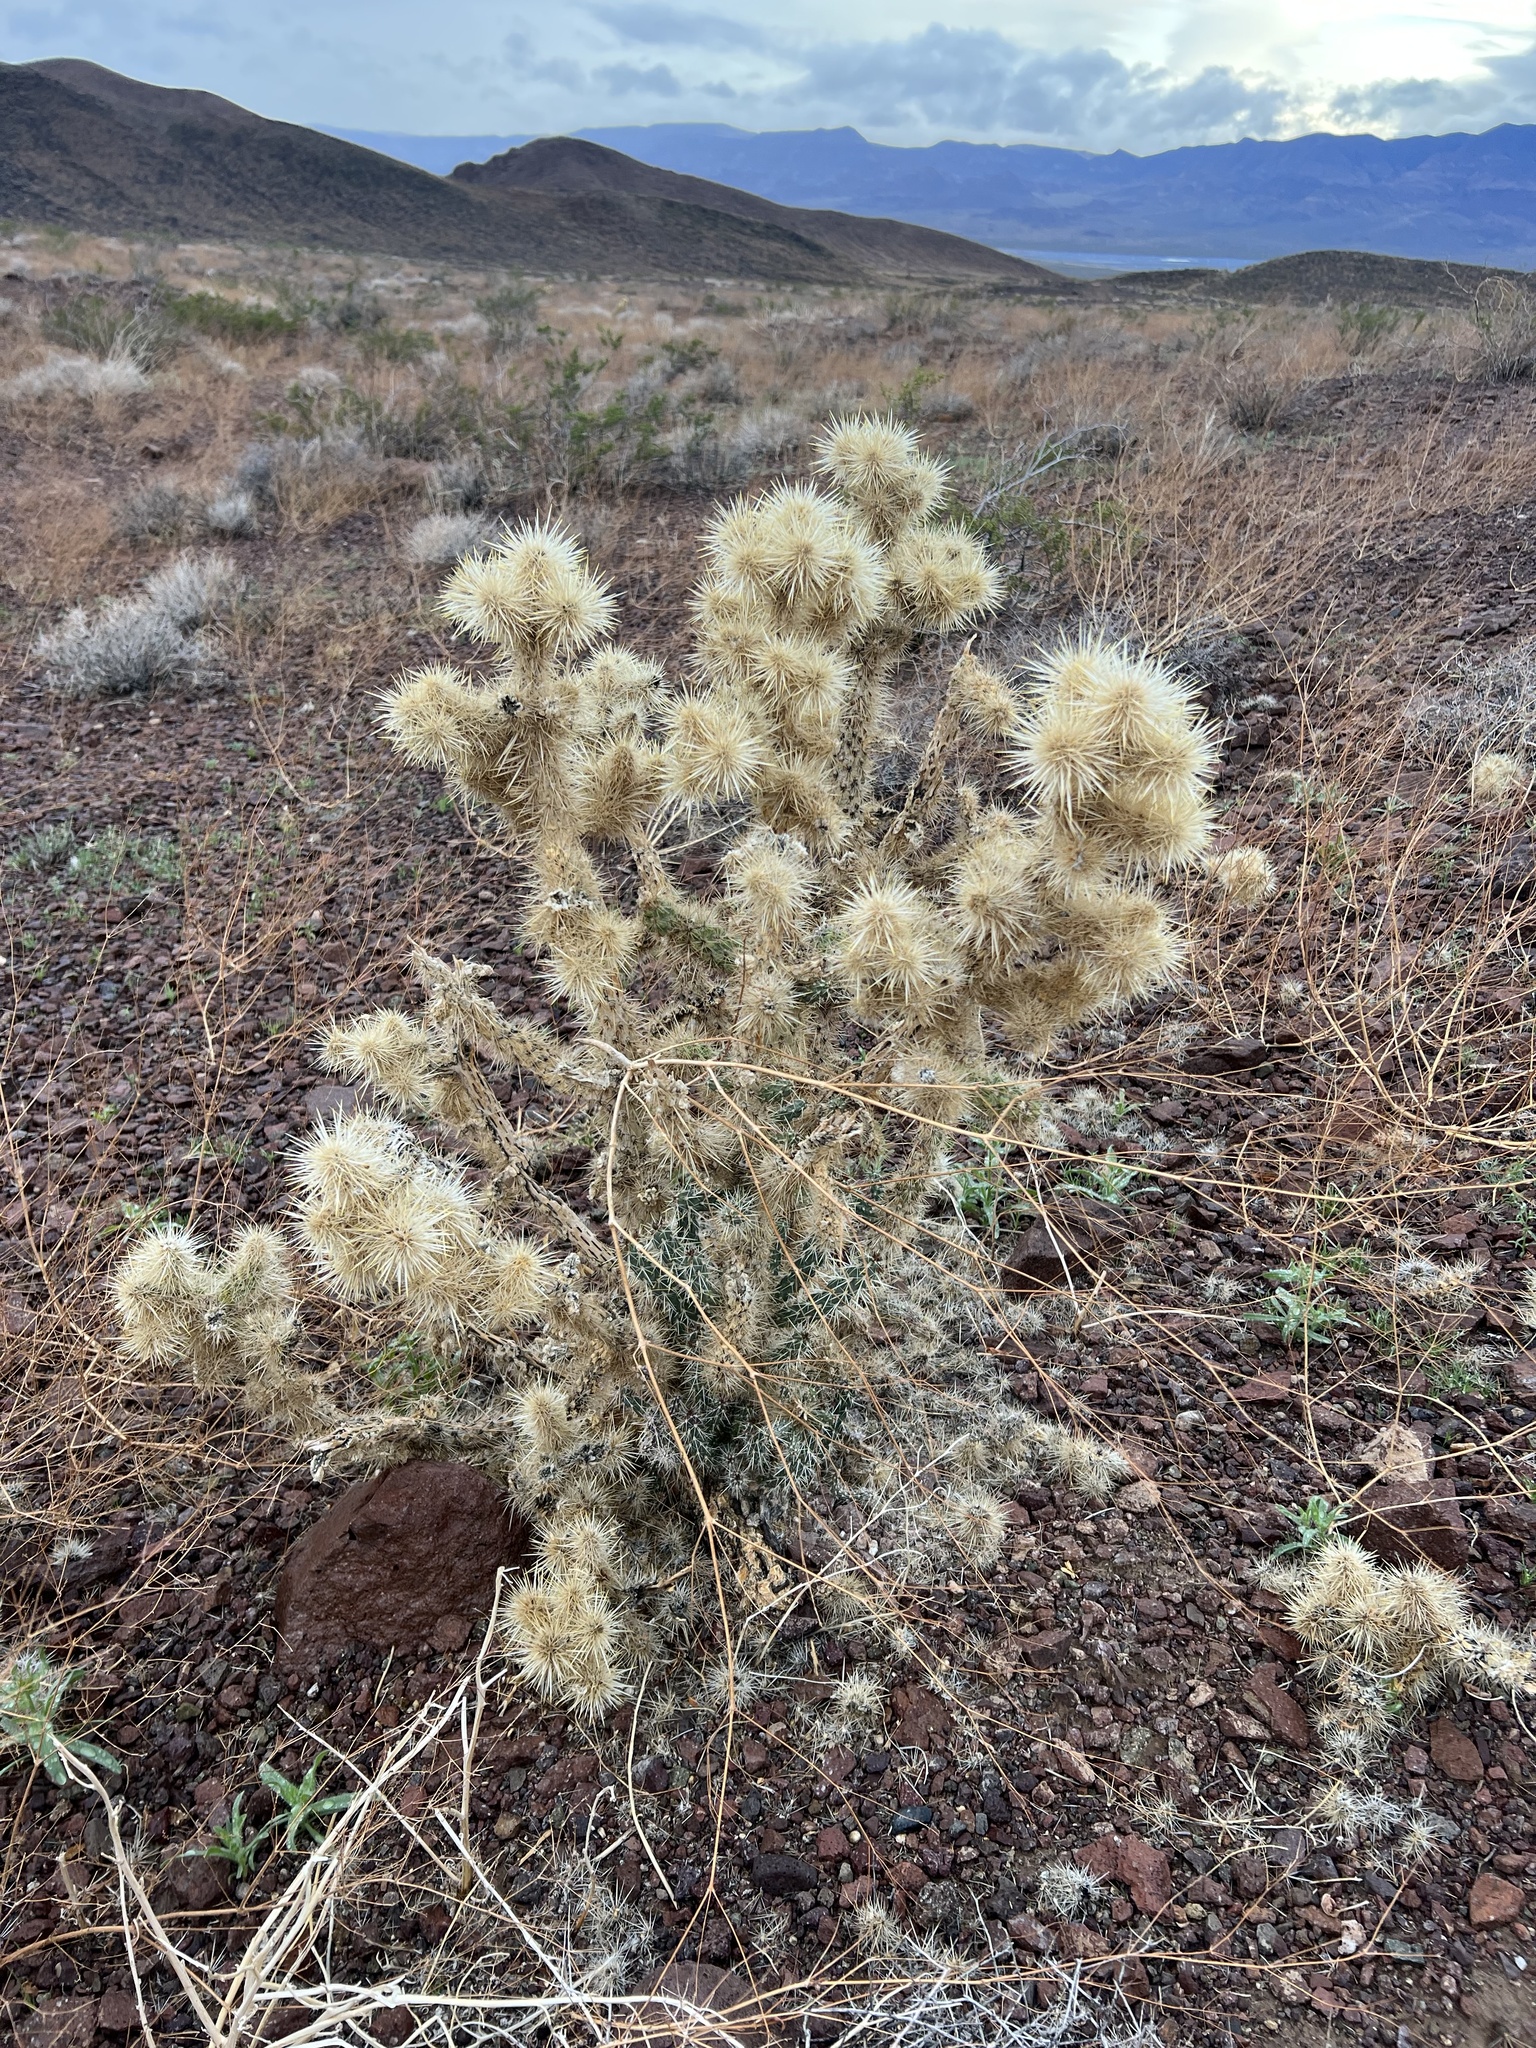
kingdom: Plantae
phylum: Tracheophyta
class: Magnoliopsida
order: Caryophyllales
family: Cactaceae
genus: Cylindropuntia
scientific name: Cylindropuntia echinocarpa
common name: Ground cholla
